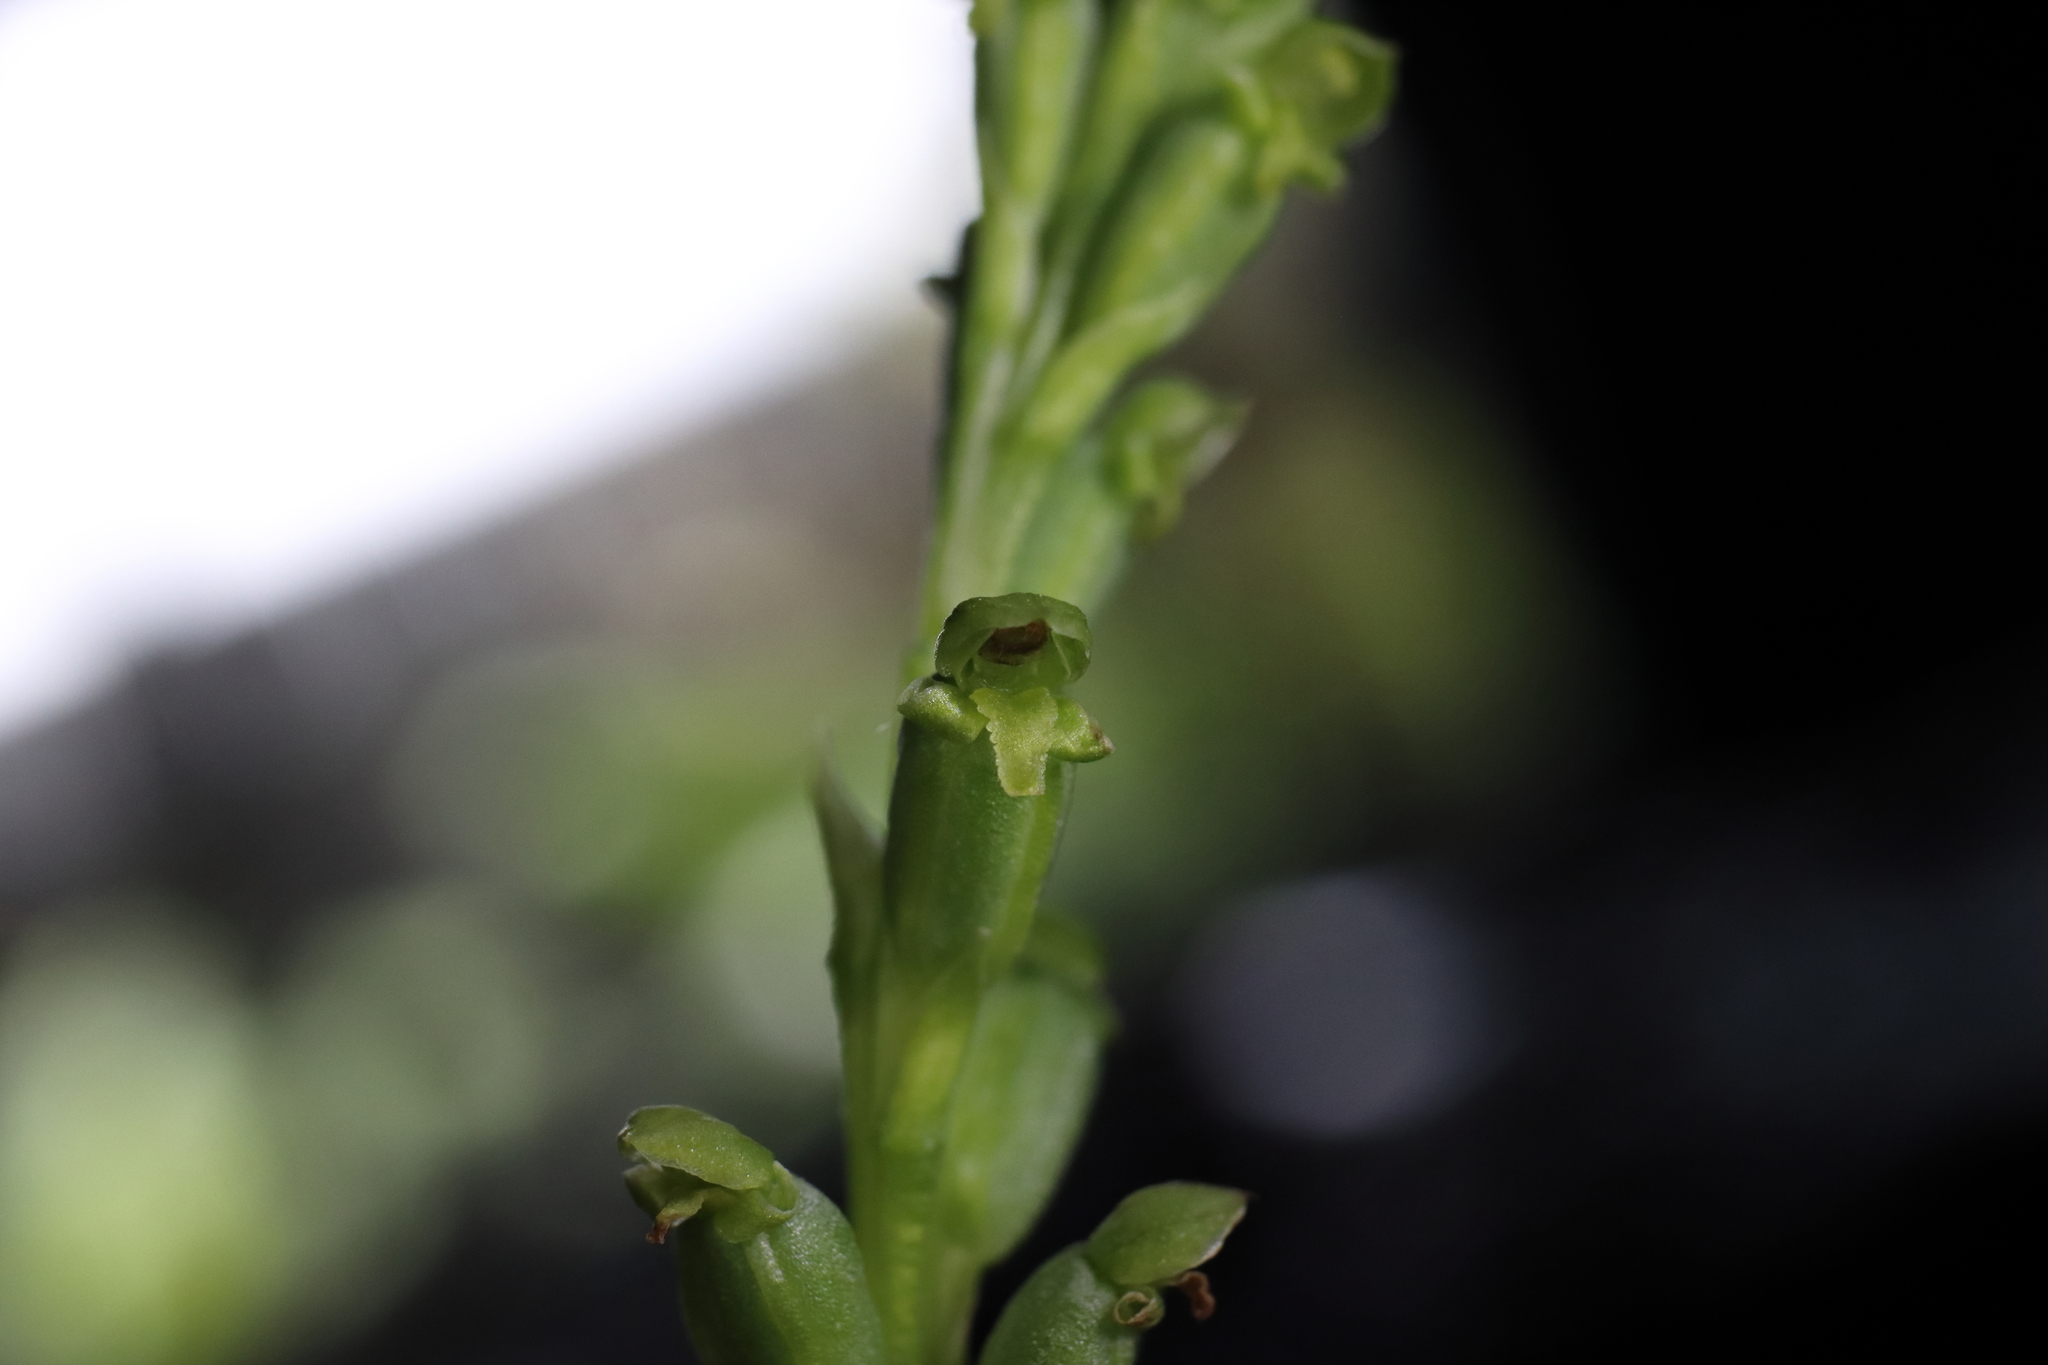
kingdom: Plantae
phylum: Tracheophyta
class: Liliopsida
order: Asparagales
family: Orchidaceae
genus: Microtis
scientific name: Microtis parviflora
